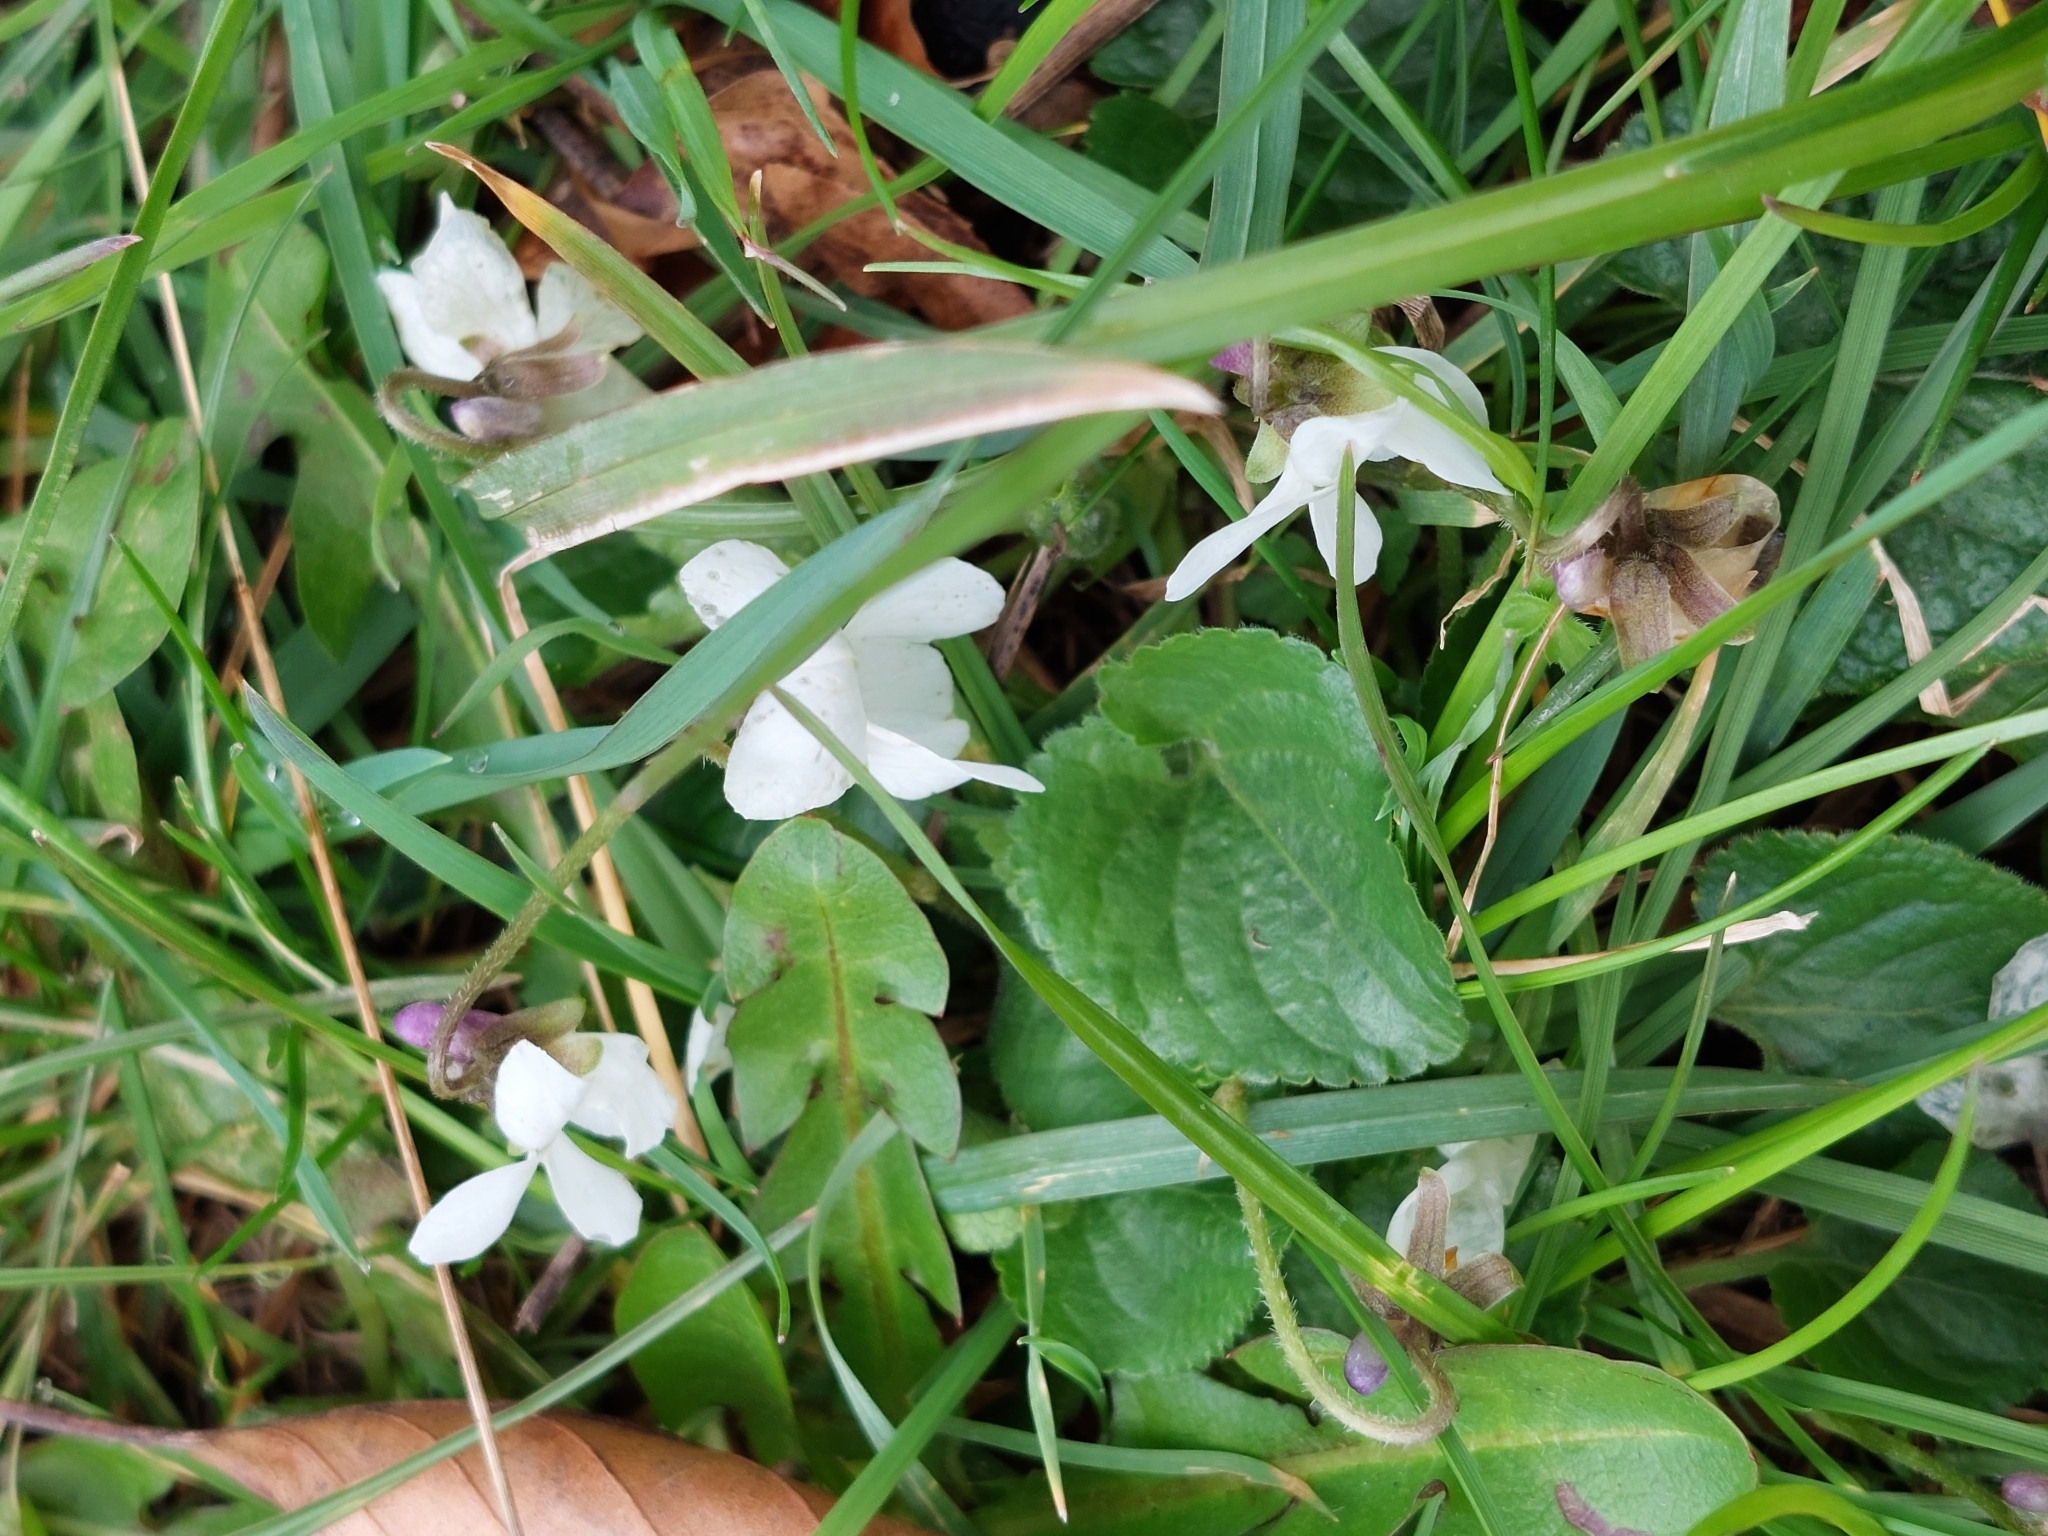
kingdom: Plantae
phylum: Tracheophyta
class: Magnoliopsida
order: Malpighiales
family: Violaceae
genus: Viola
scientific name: Viola odorata
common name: Sweet violet
